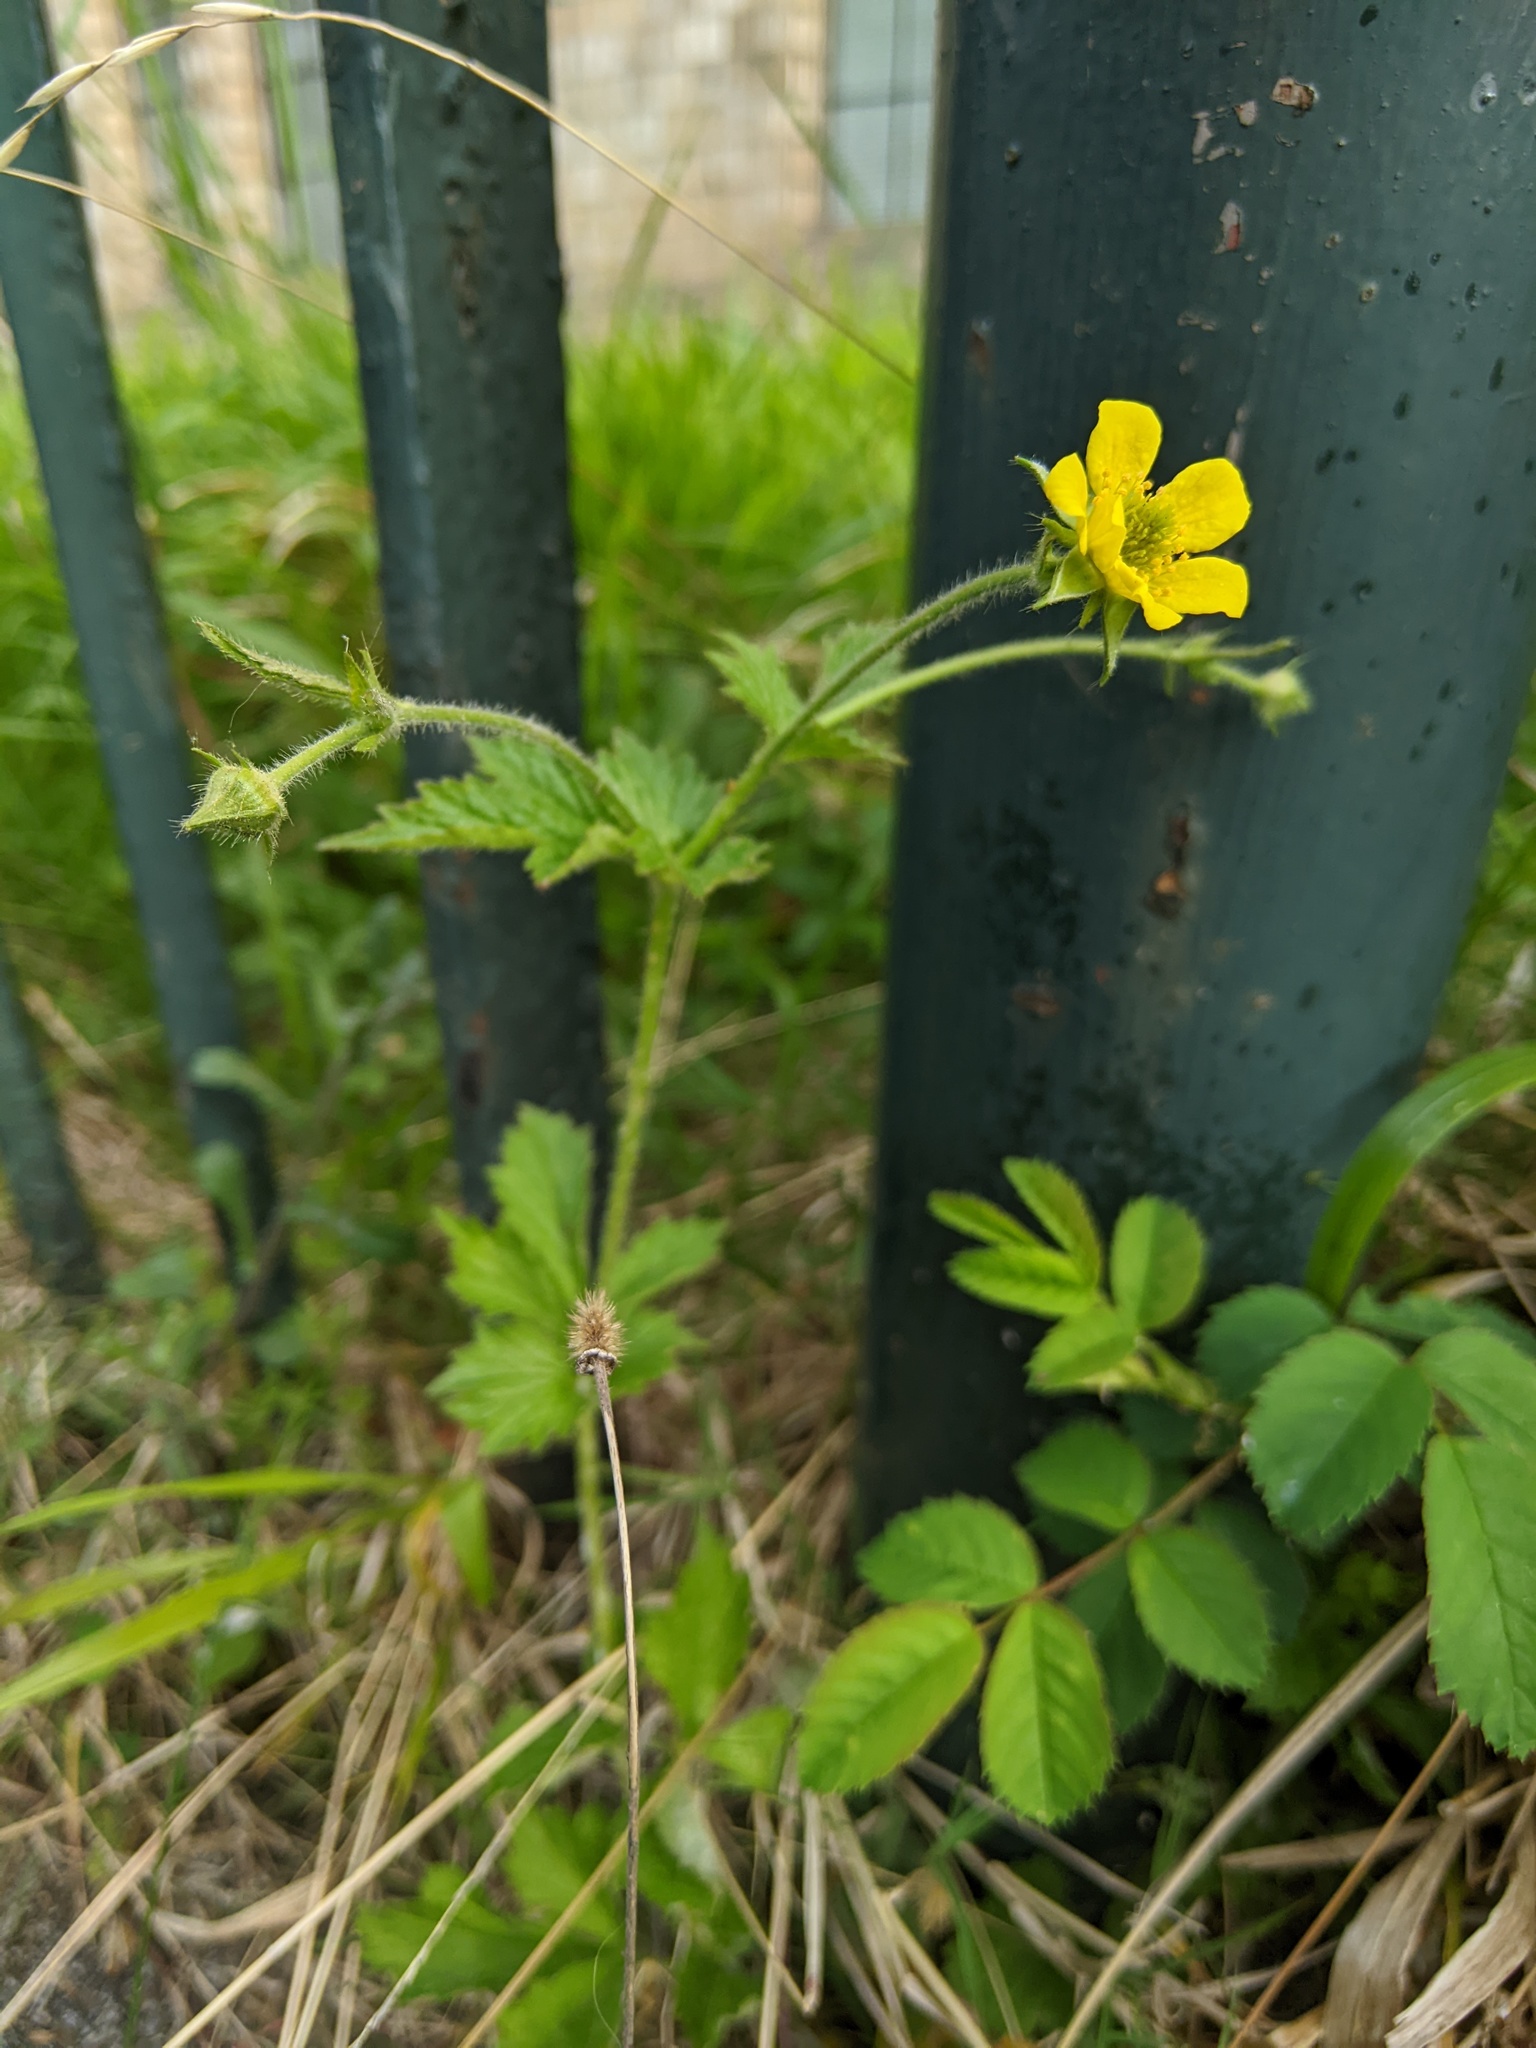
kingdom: Plantae
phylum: Tracheophyta
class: Magnoliopsida
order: Rosales
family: Rosaceae
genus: Geum
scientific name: Geum urbanum
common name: Wood avens
